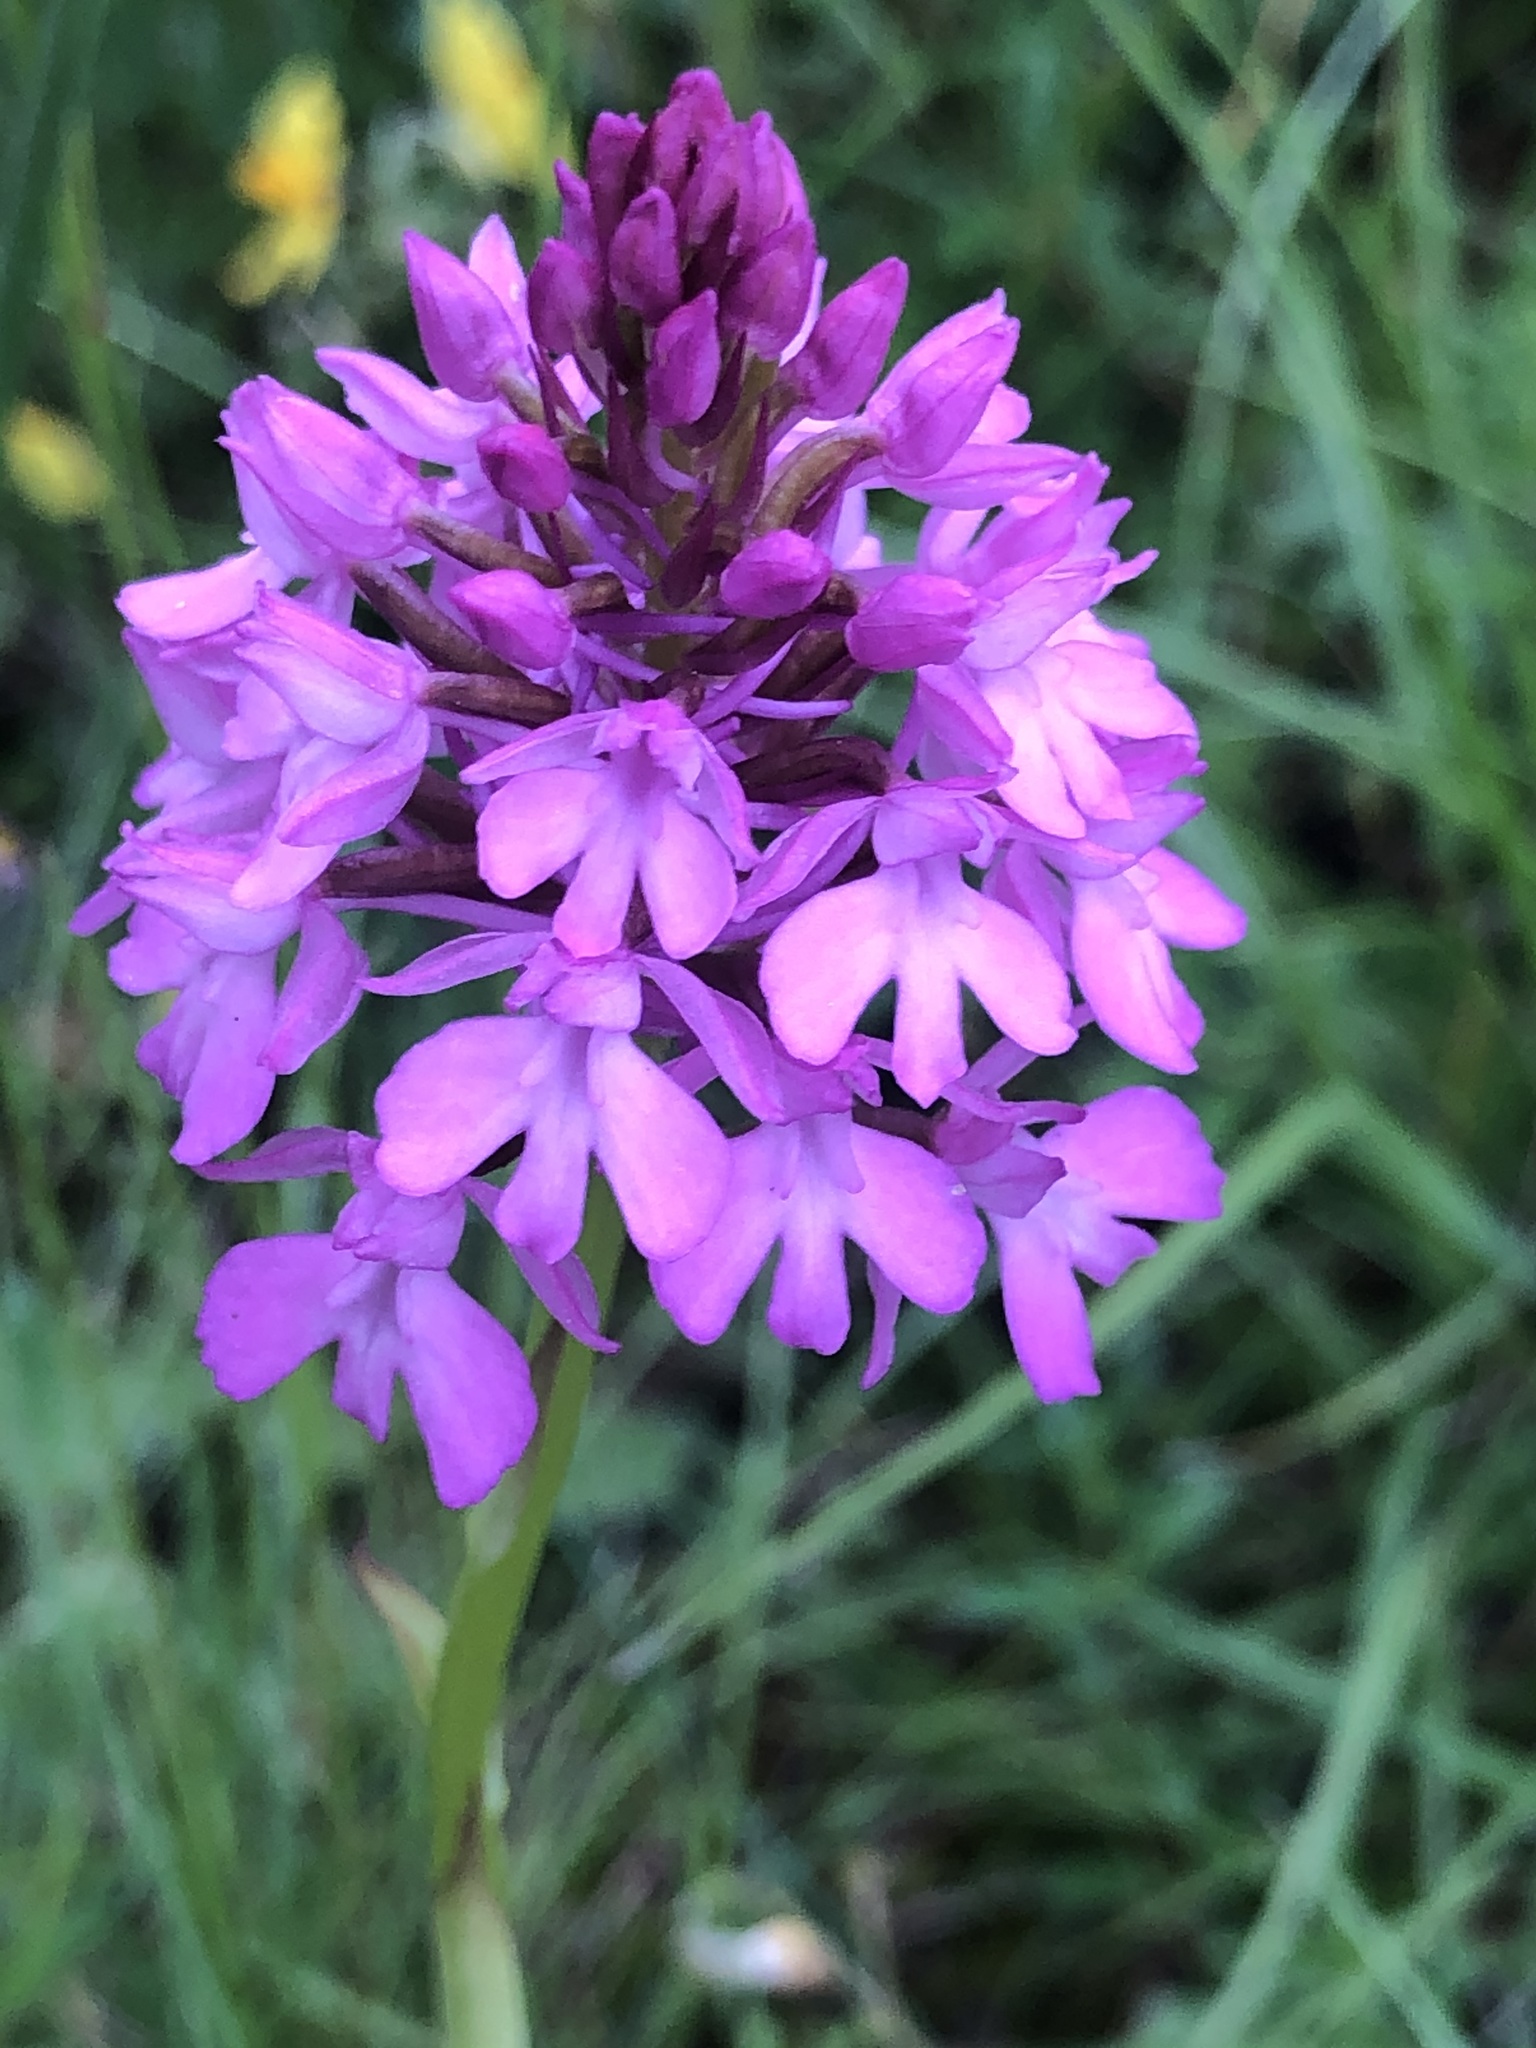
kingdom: Plantae
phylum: Tracheophyta
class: Liliopsida
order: Asparagales
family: Orchidaceae
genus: Anacamptis
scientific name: Anacamptis pyramidalis
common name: Pyramidal orchid
